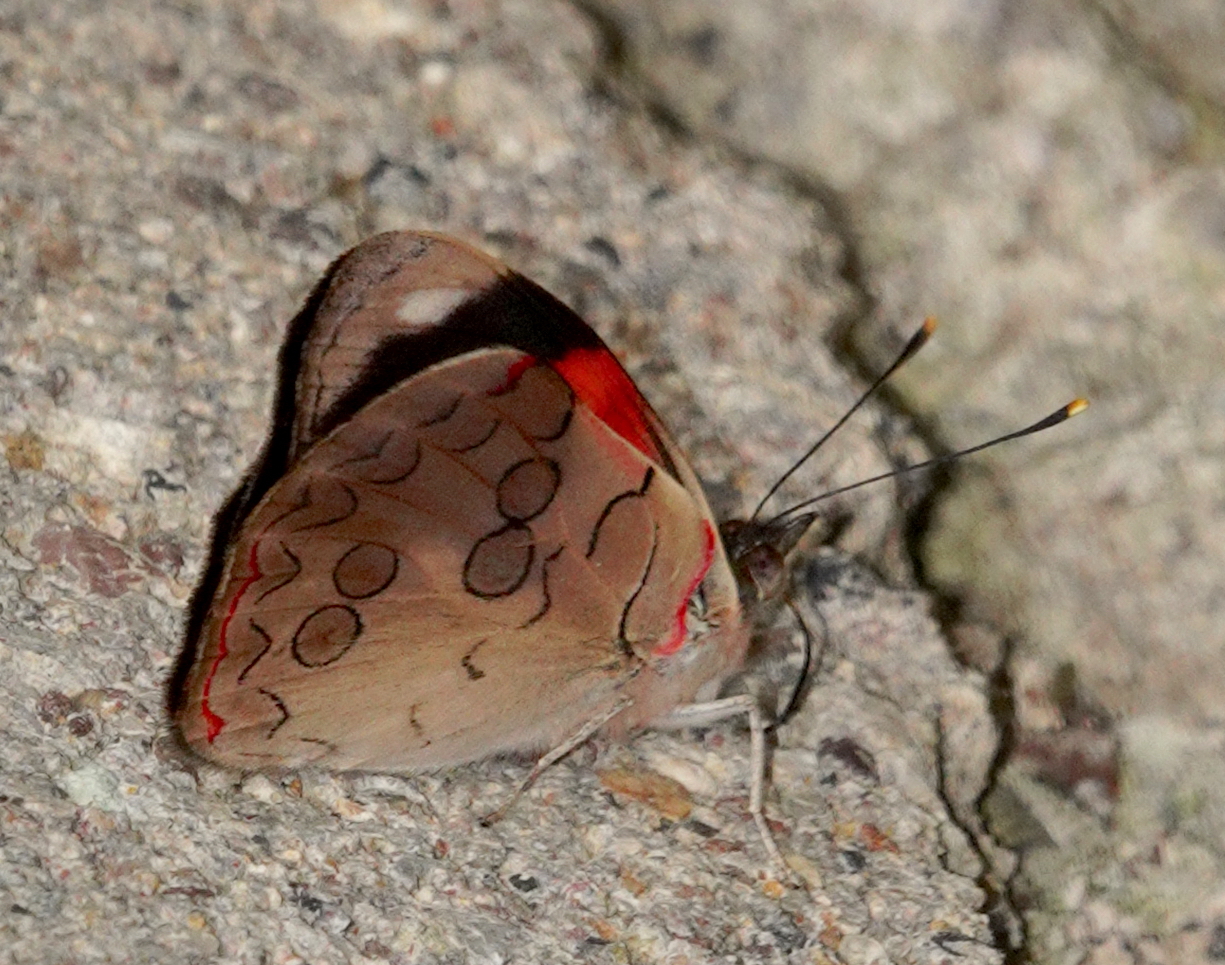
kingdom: Animalia
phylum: Arthropoda
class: Insecta
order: Lepidoptera
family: Nymphalidae
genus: Diaethria
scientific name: Diaethria pandama
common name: Orange-striped eighty-eight
